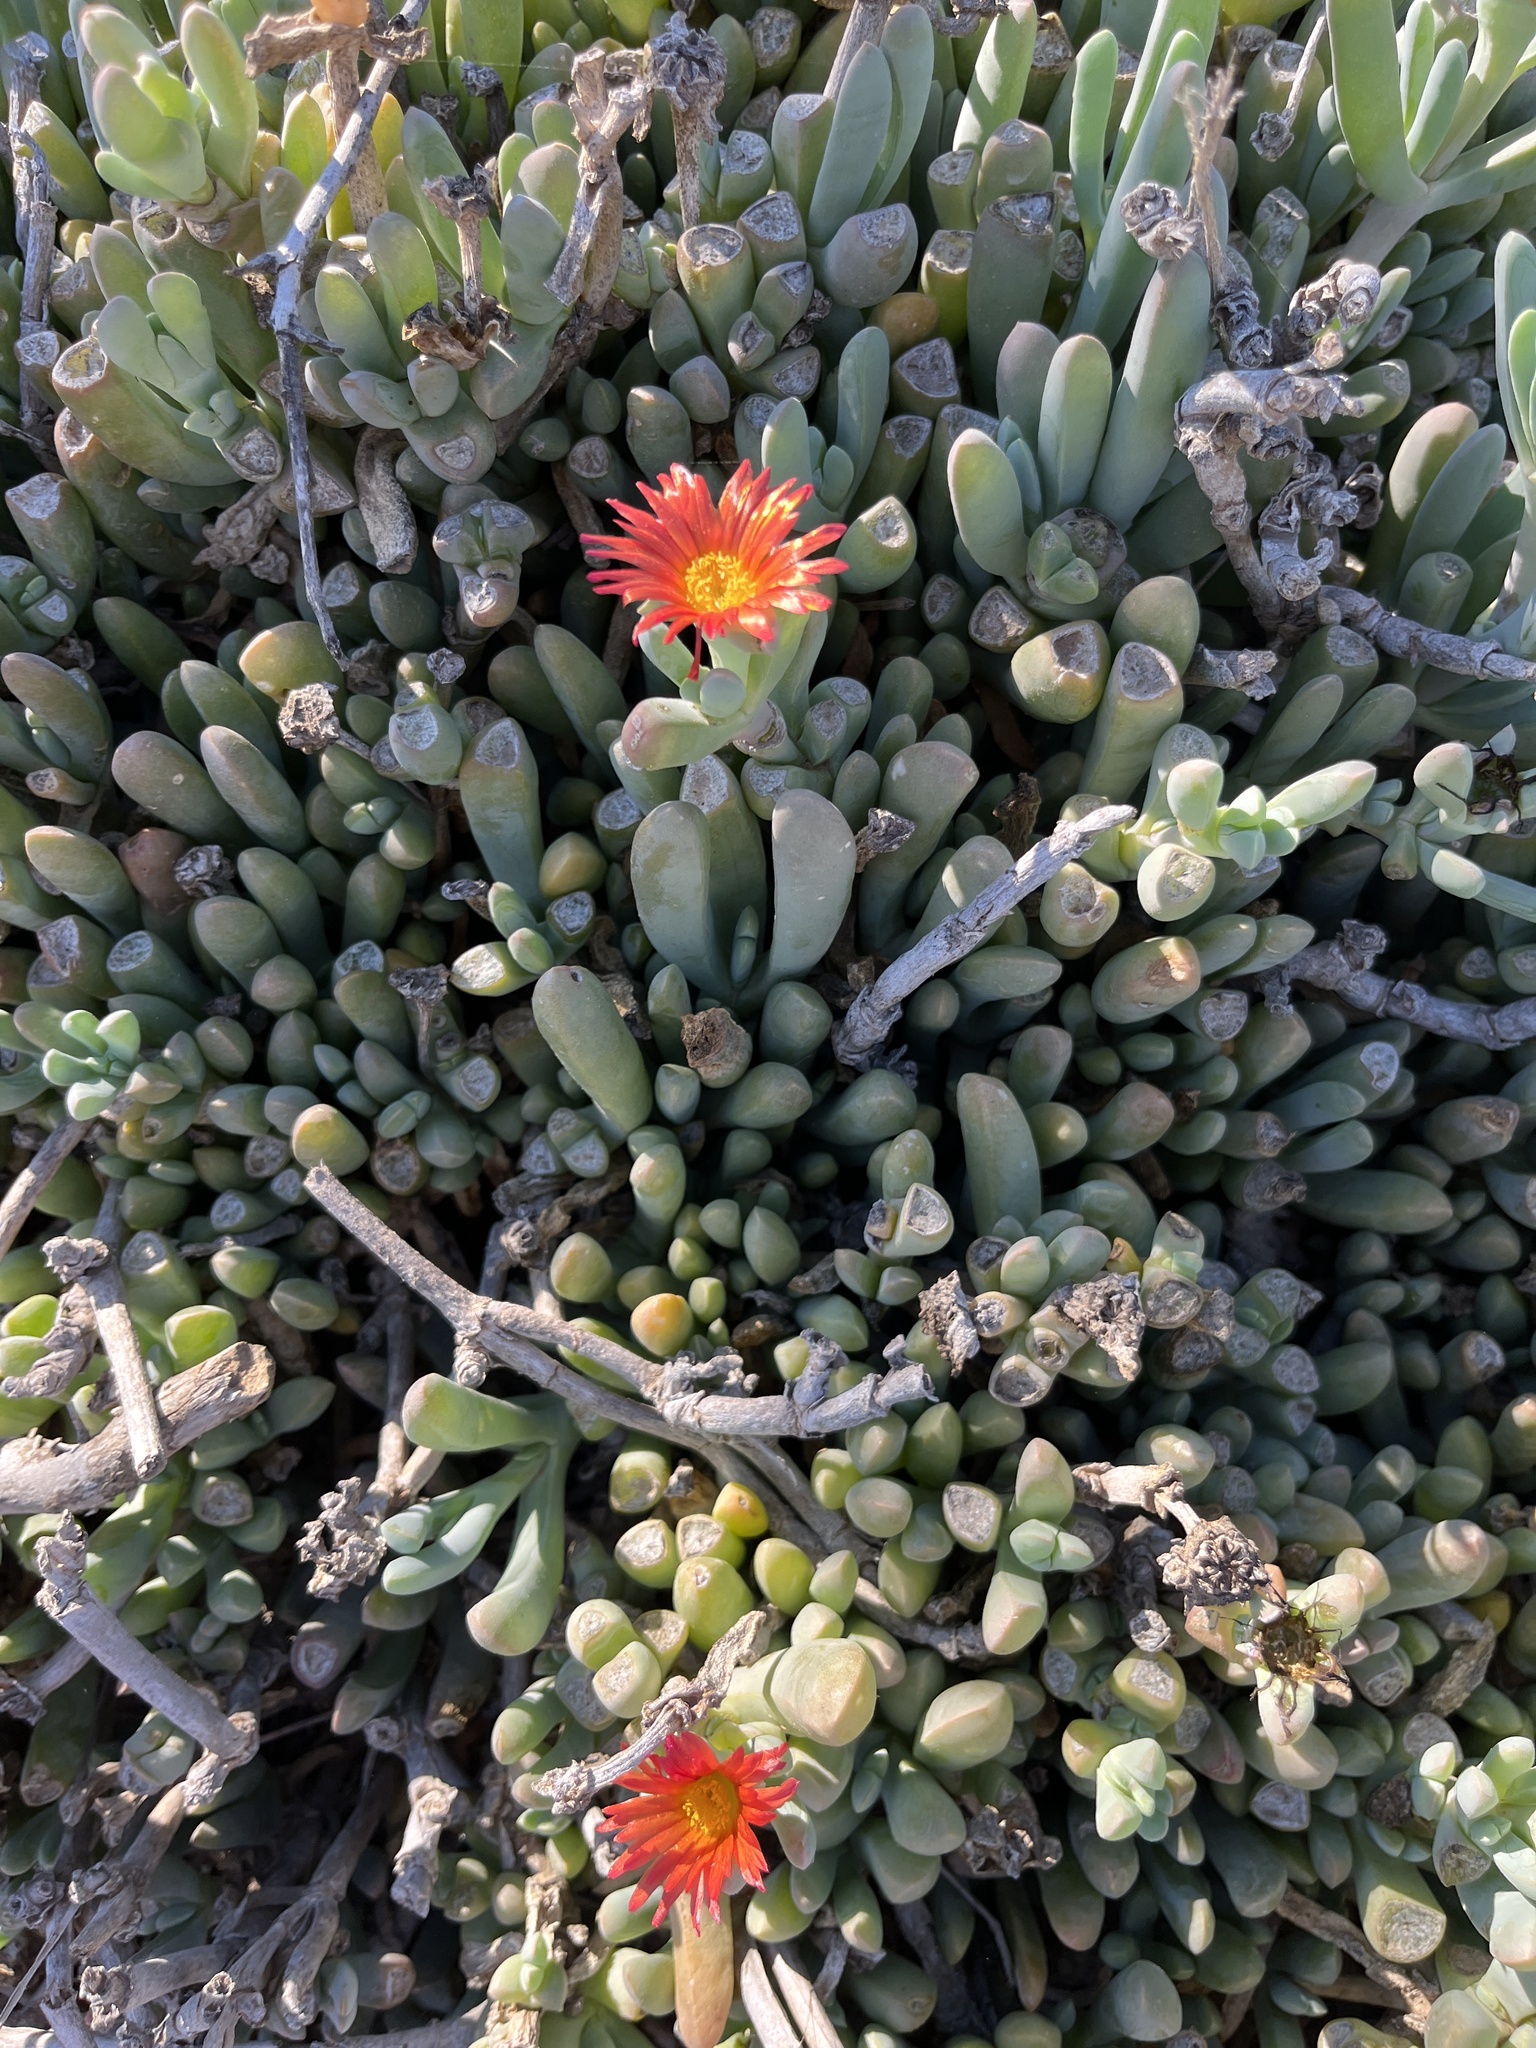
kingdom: Plantae
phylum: Tracheophyta
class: Magnoliopsida
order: Caryophyllales
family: Aizoaceae
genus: Malephora
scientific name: Malephora crocea
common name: Coppery mesemb
